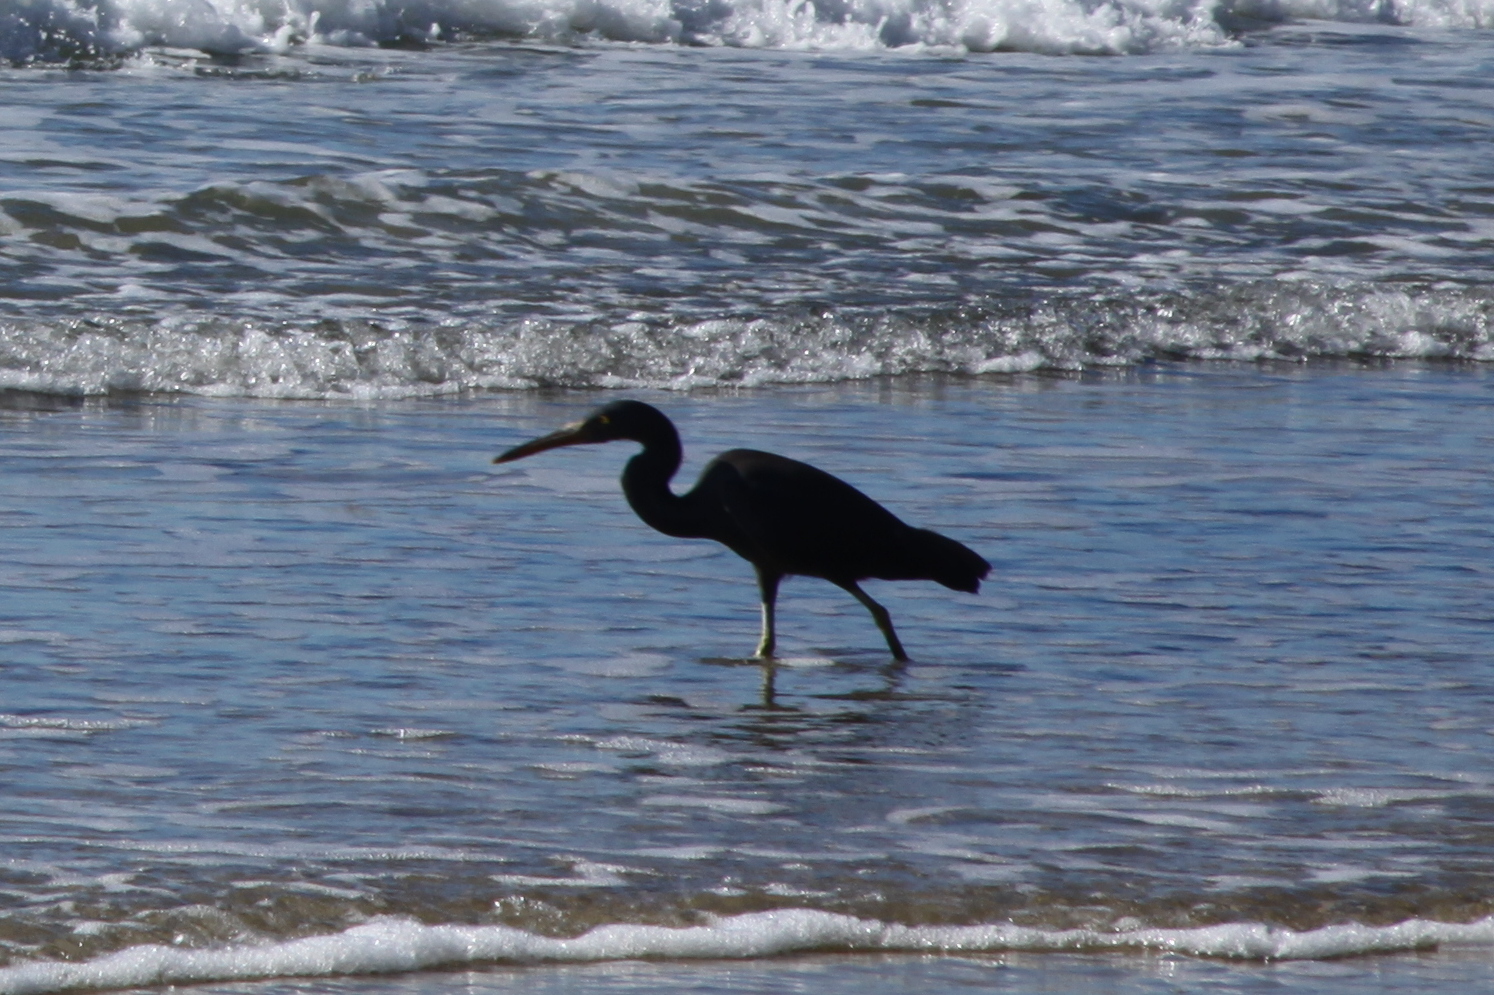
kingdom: Animalia
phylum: Chordata
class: Aves
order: Pelecaniformes
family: Ardeidae
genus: Egretta
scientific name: Egretta sacra
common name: Pacific reef heron
